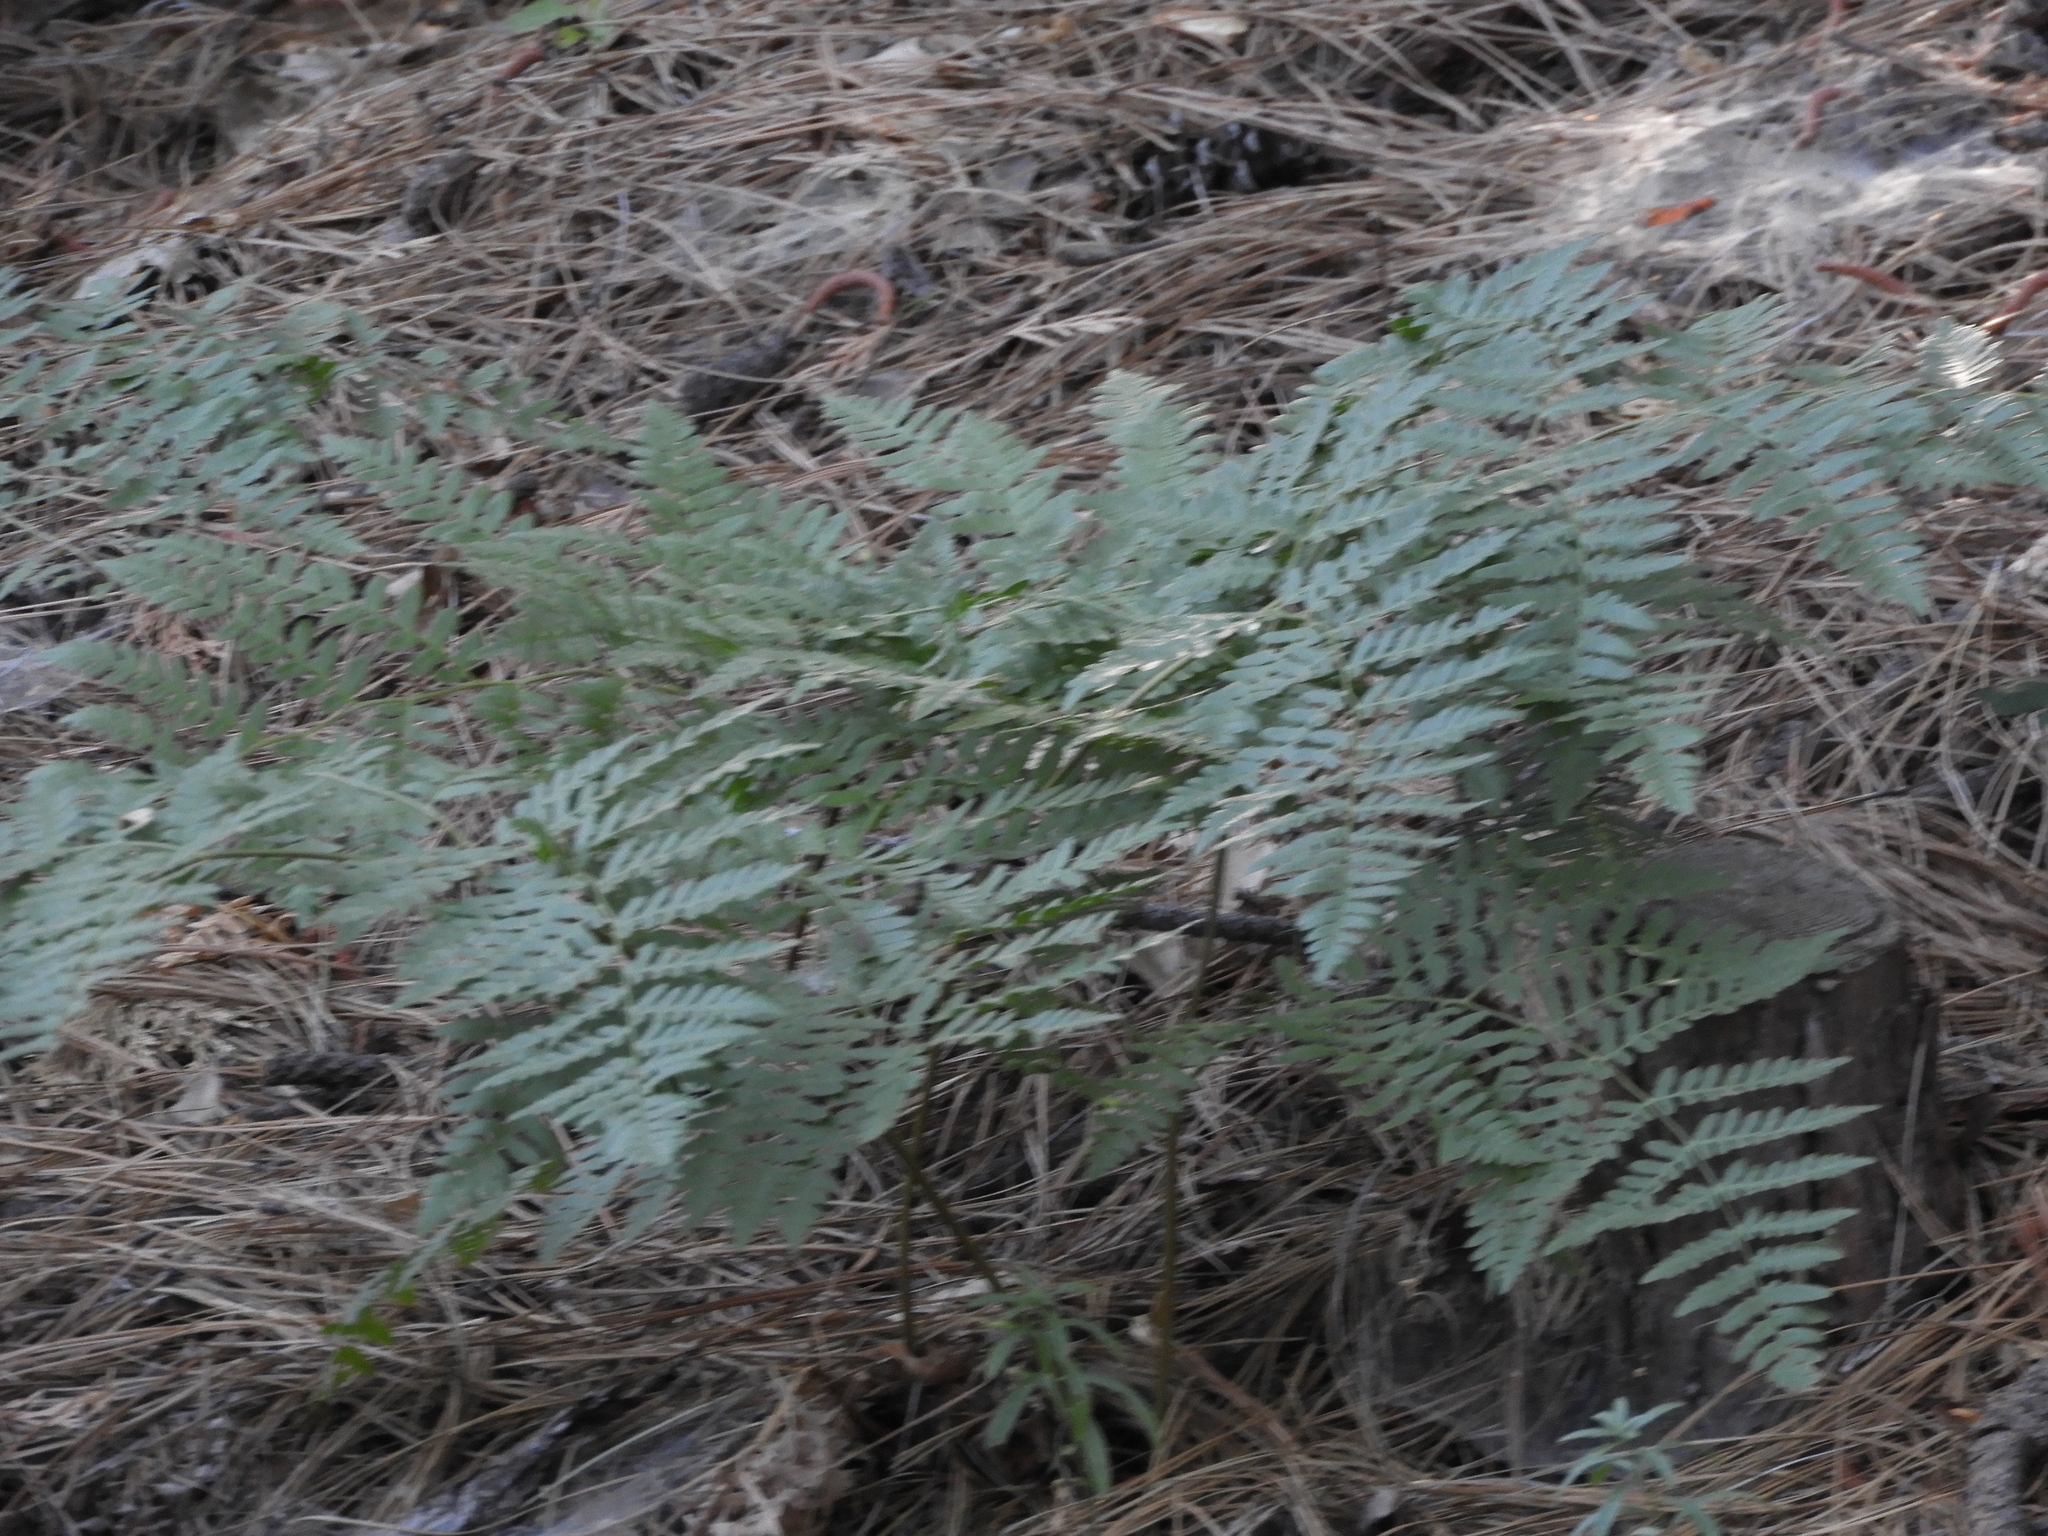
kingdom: Plantae
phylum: Tracheophyta
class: Polypodiopsida
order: Polypodiales
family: Dennstaedtiaceae
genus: Pteridium
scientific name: Pteridium aquilinum
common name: Bracken
